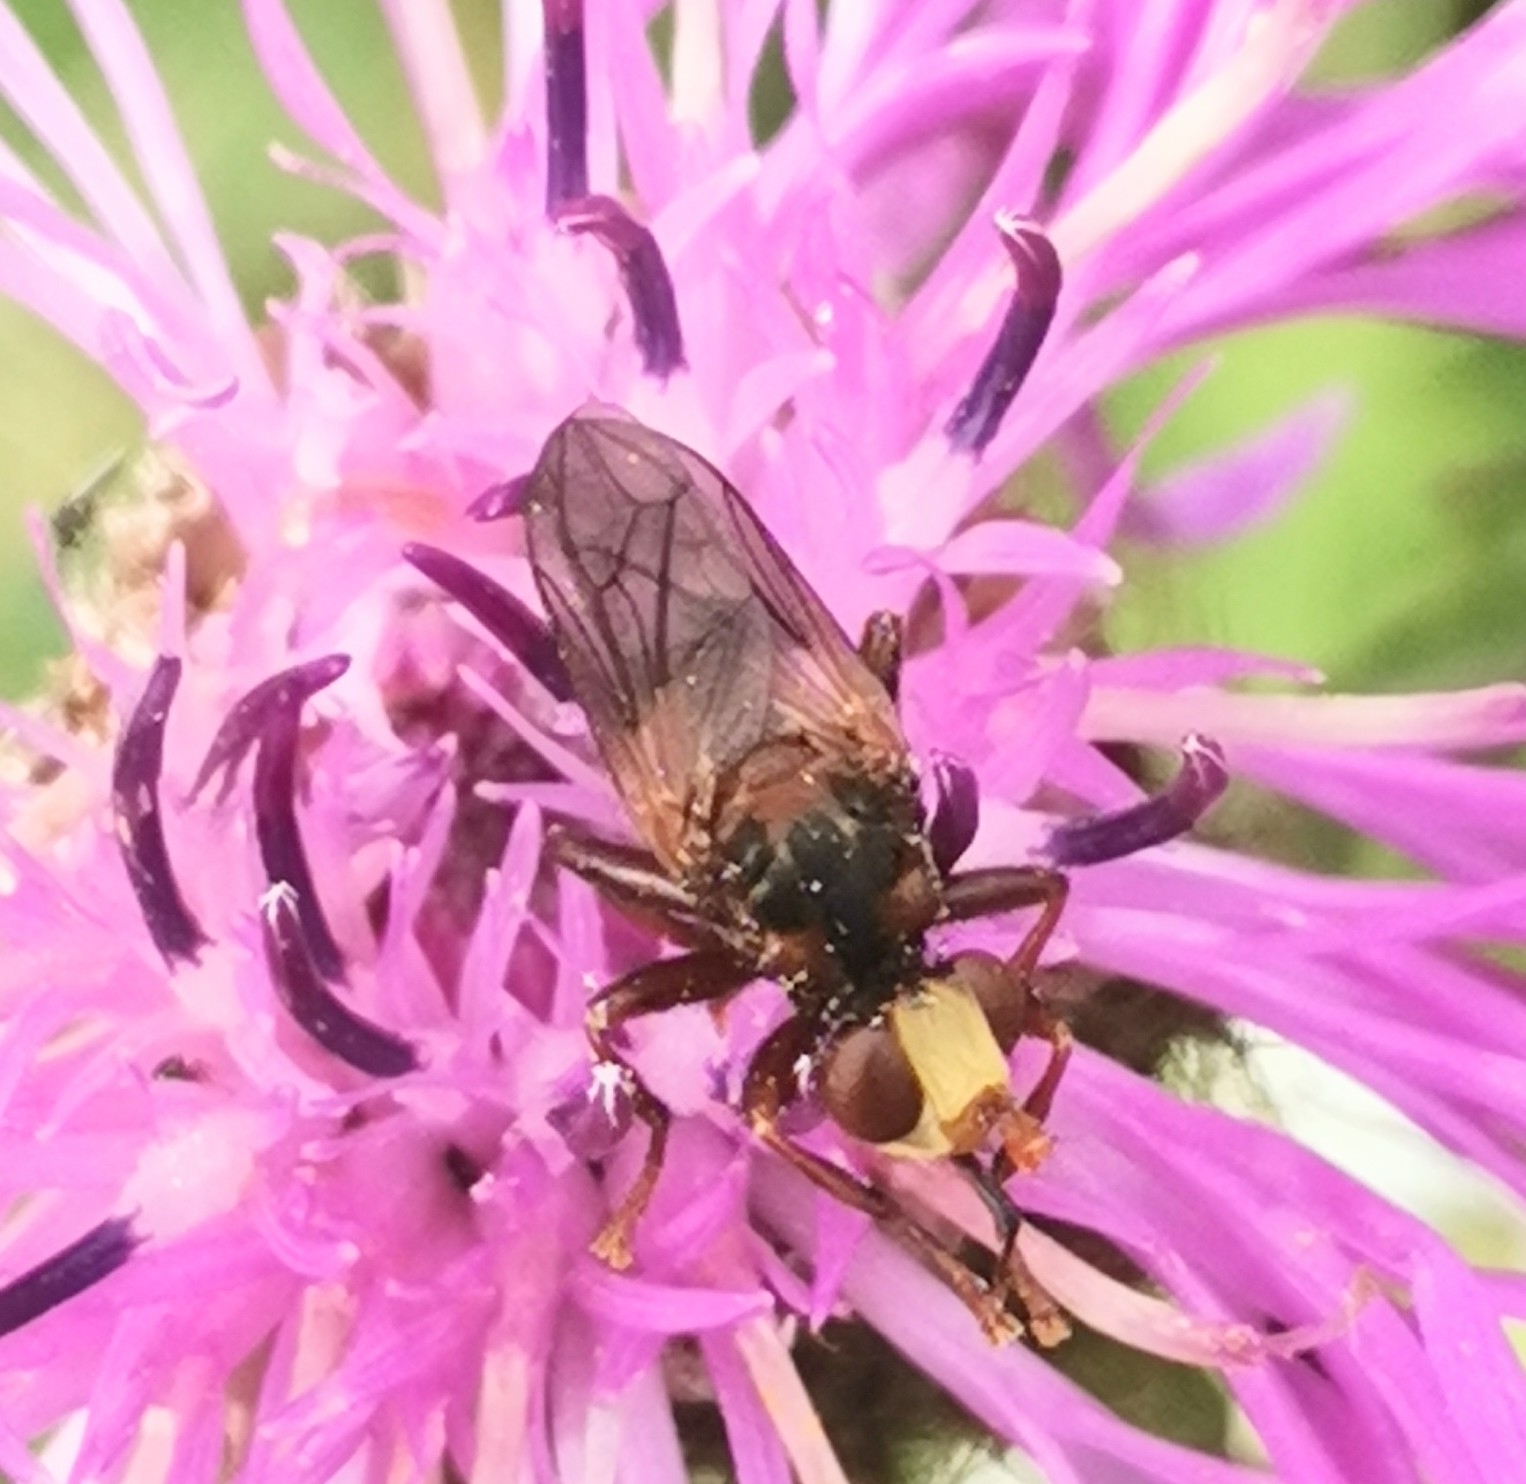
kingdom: Animalia
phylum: Arthropoda
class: Insecta
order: Diptera
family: Conopidae
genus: Sicus
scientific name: Sicus ferrugineus
